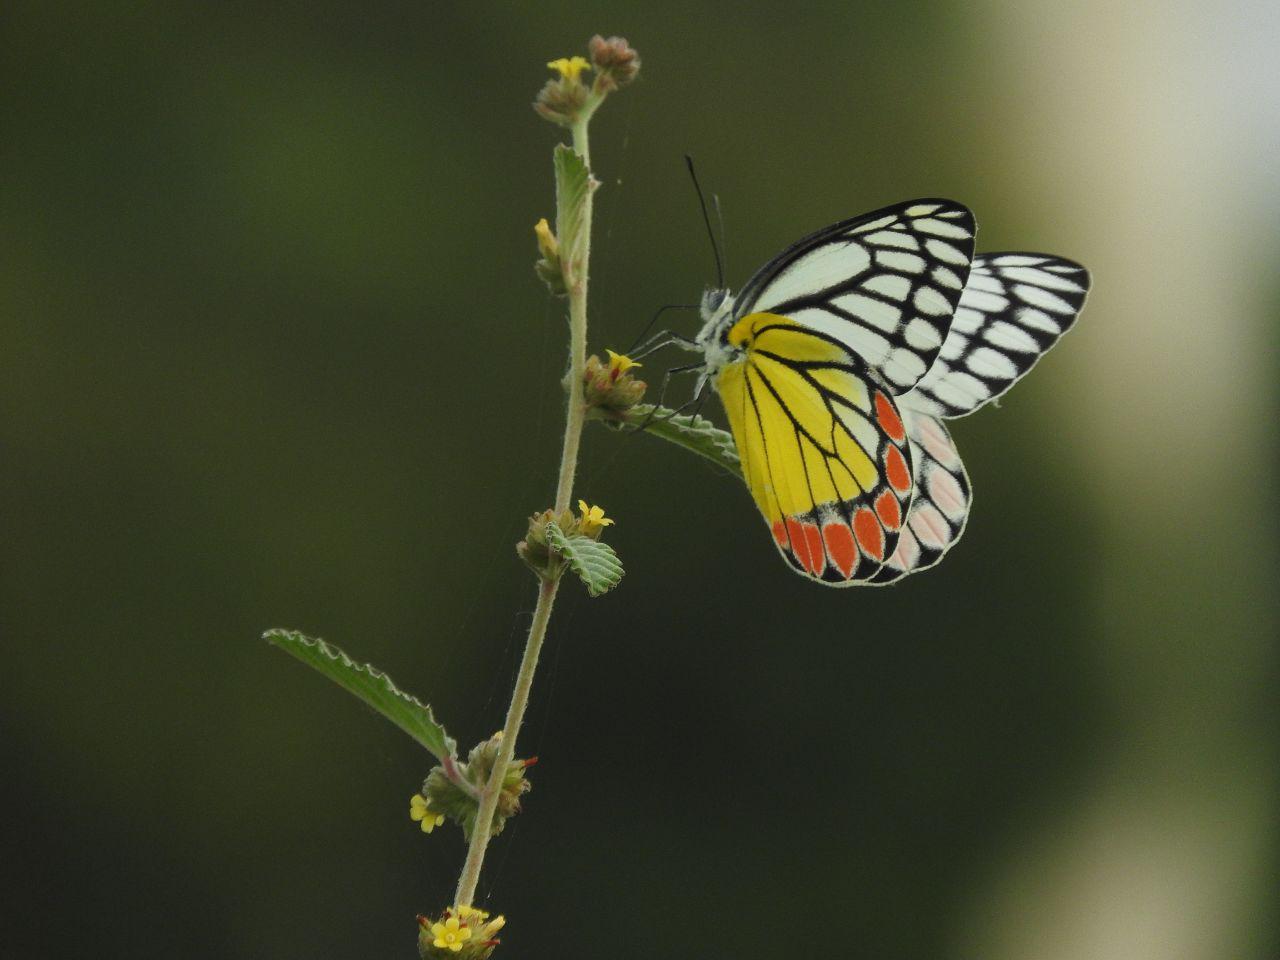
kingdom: Animalia
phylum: Arthropoda
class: Insecta
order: Lepidoptera
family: Pieridae
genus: Delias
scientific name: Delias eucharis
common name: Common jezebel
